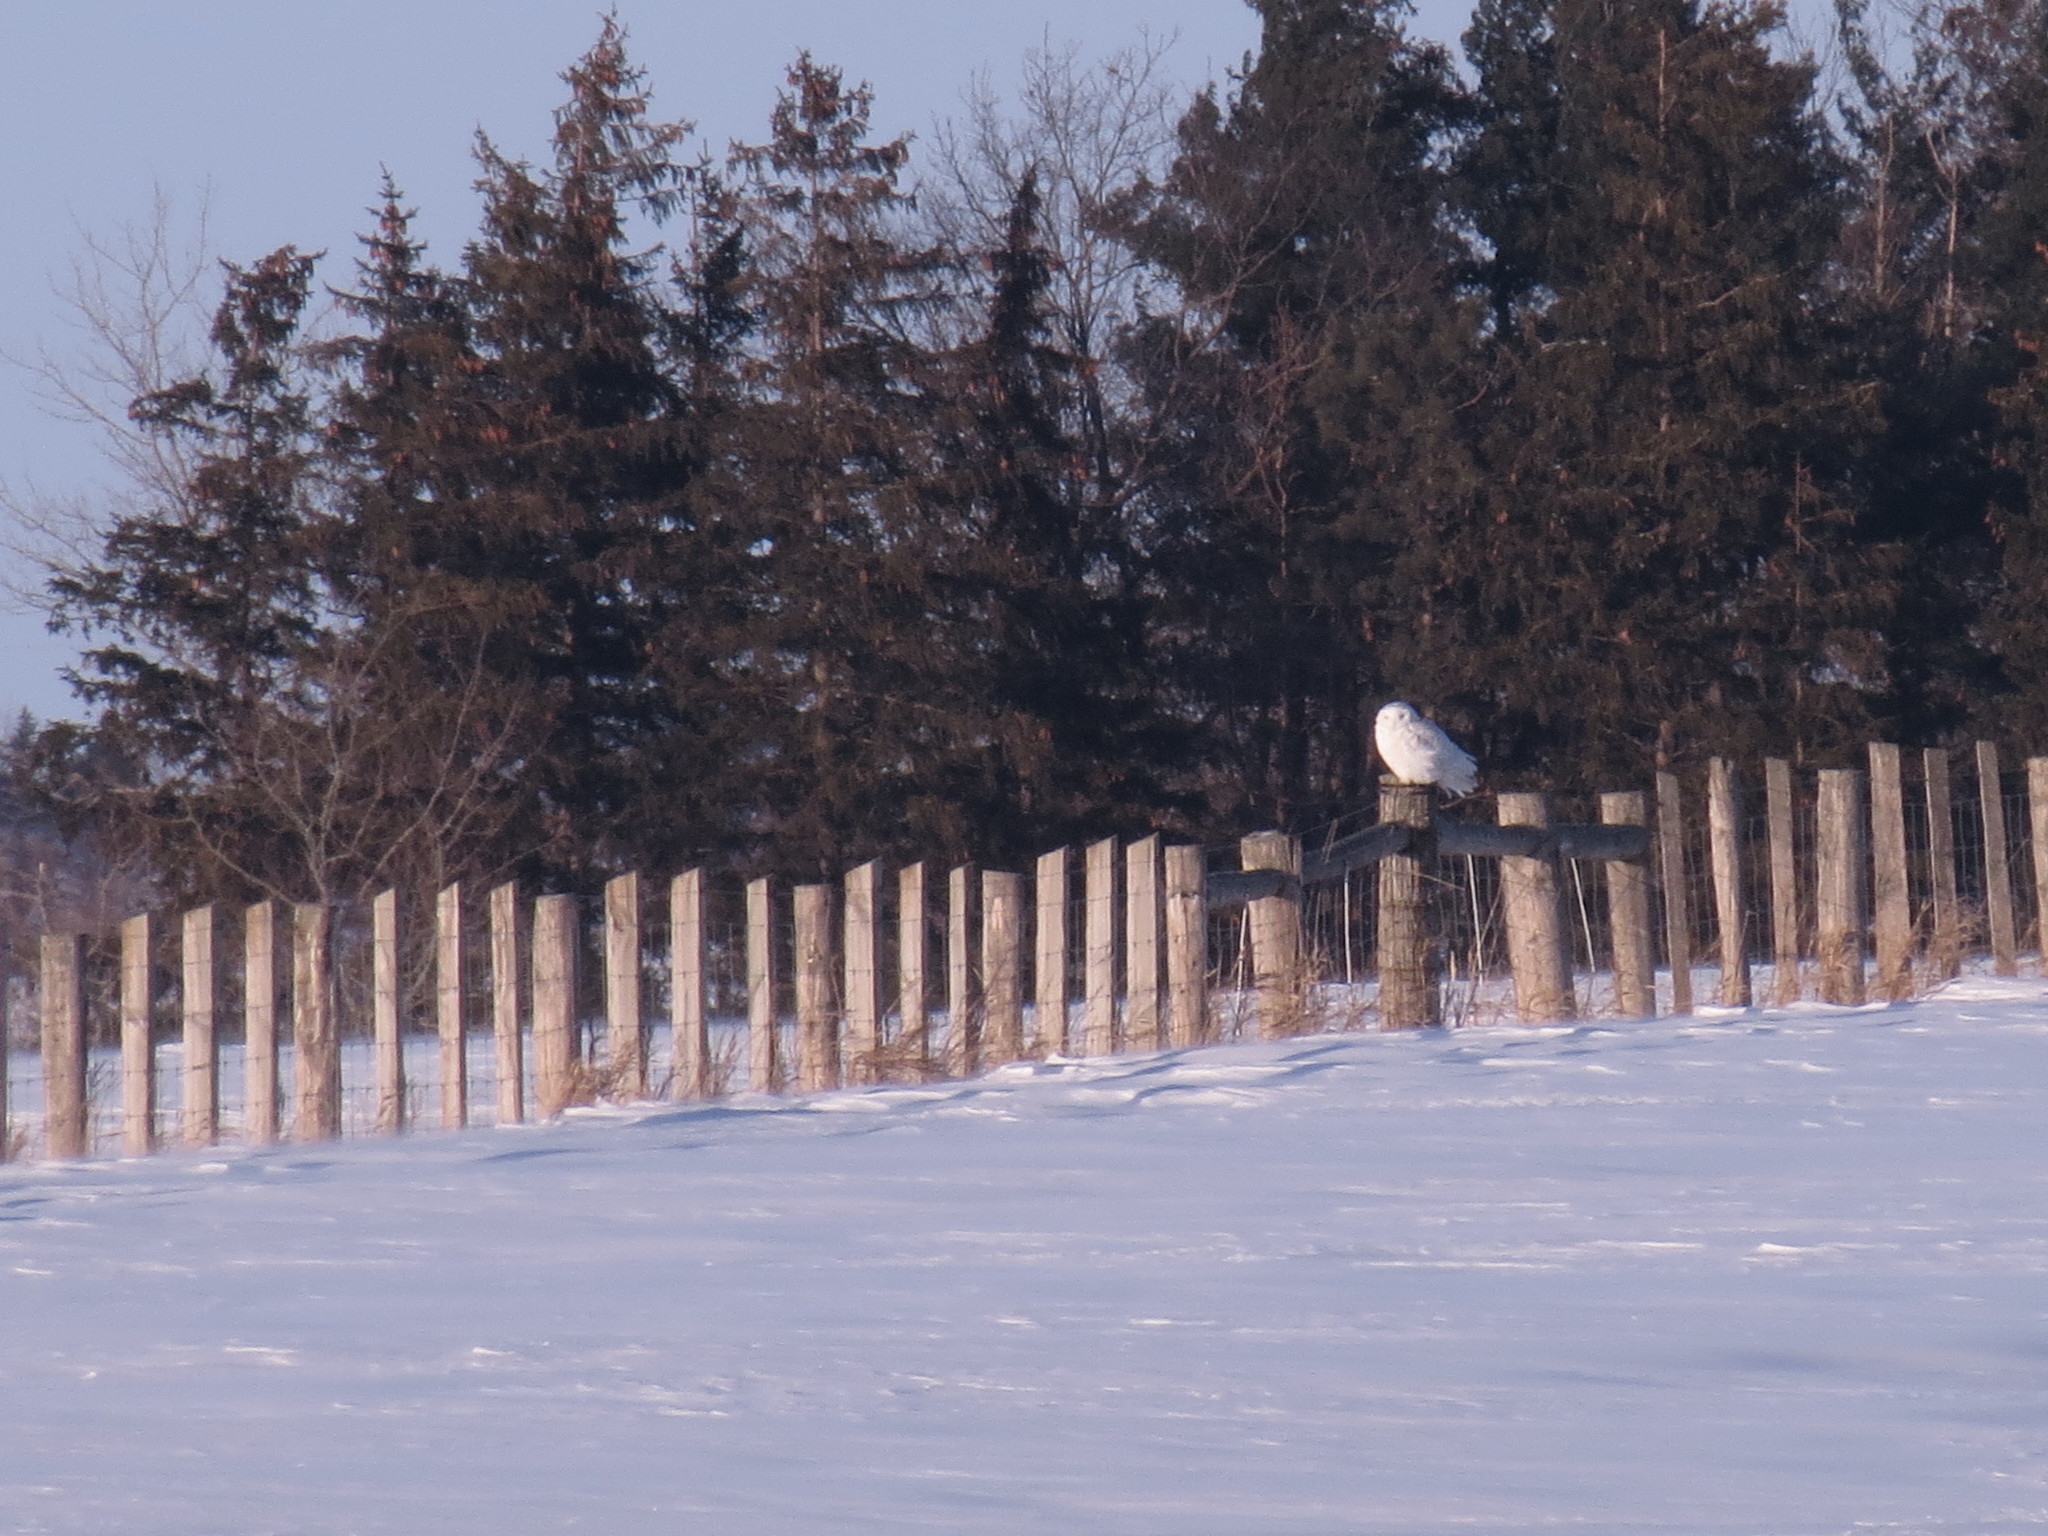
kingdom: Animalia
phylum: Chordata
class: Aves
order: Strigiformes
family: Strigidae
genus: Bubo
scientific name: Bubo scandiacus
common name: Snowy owl
